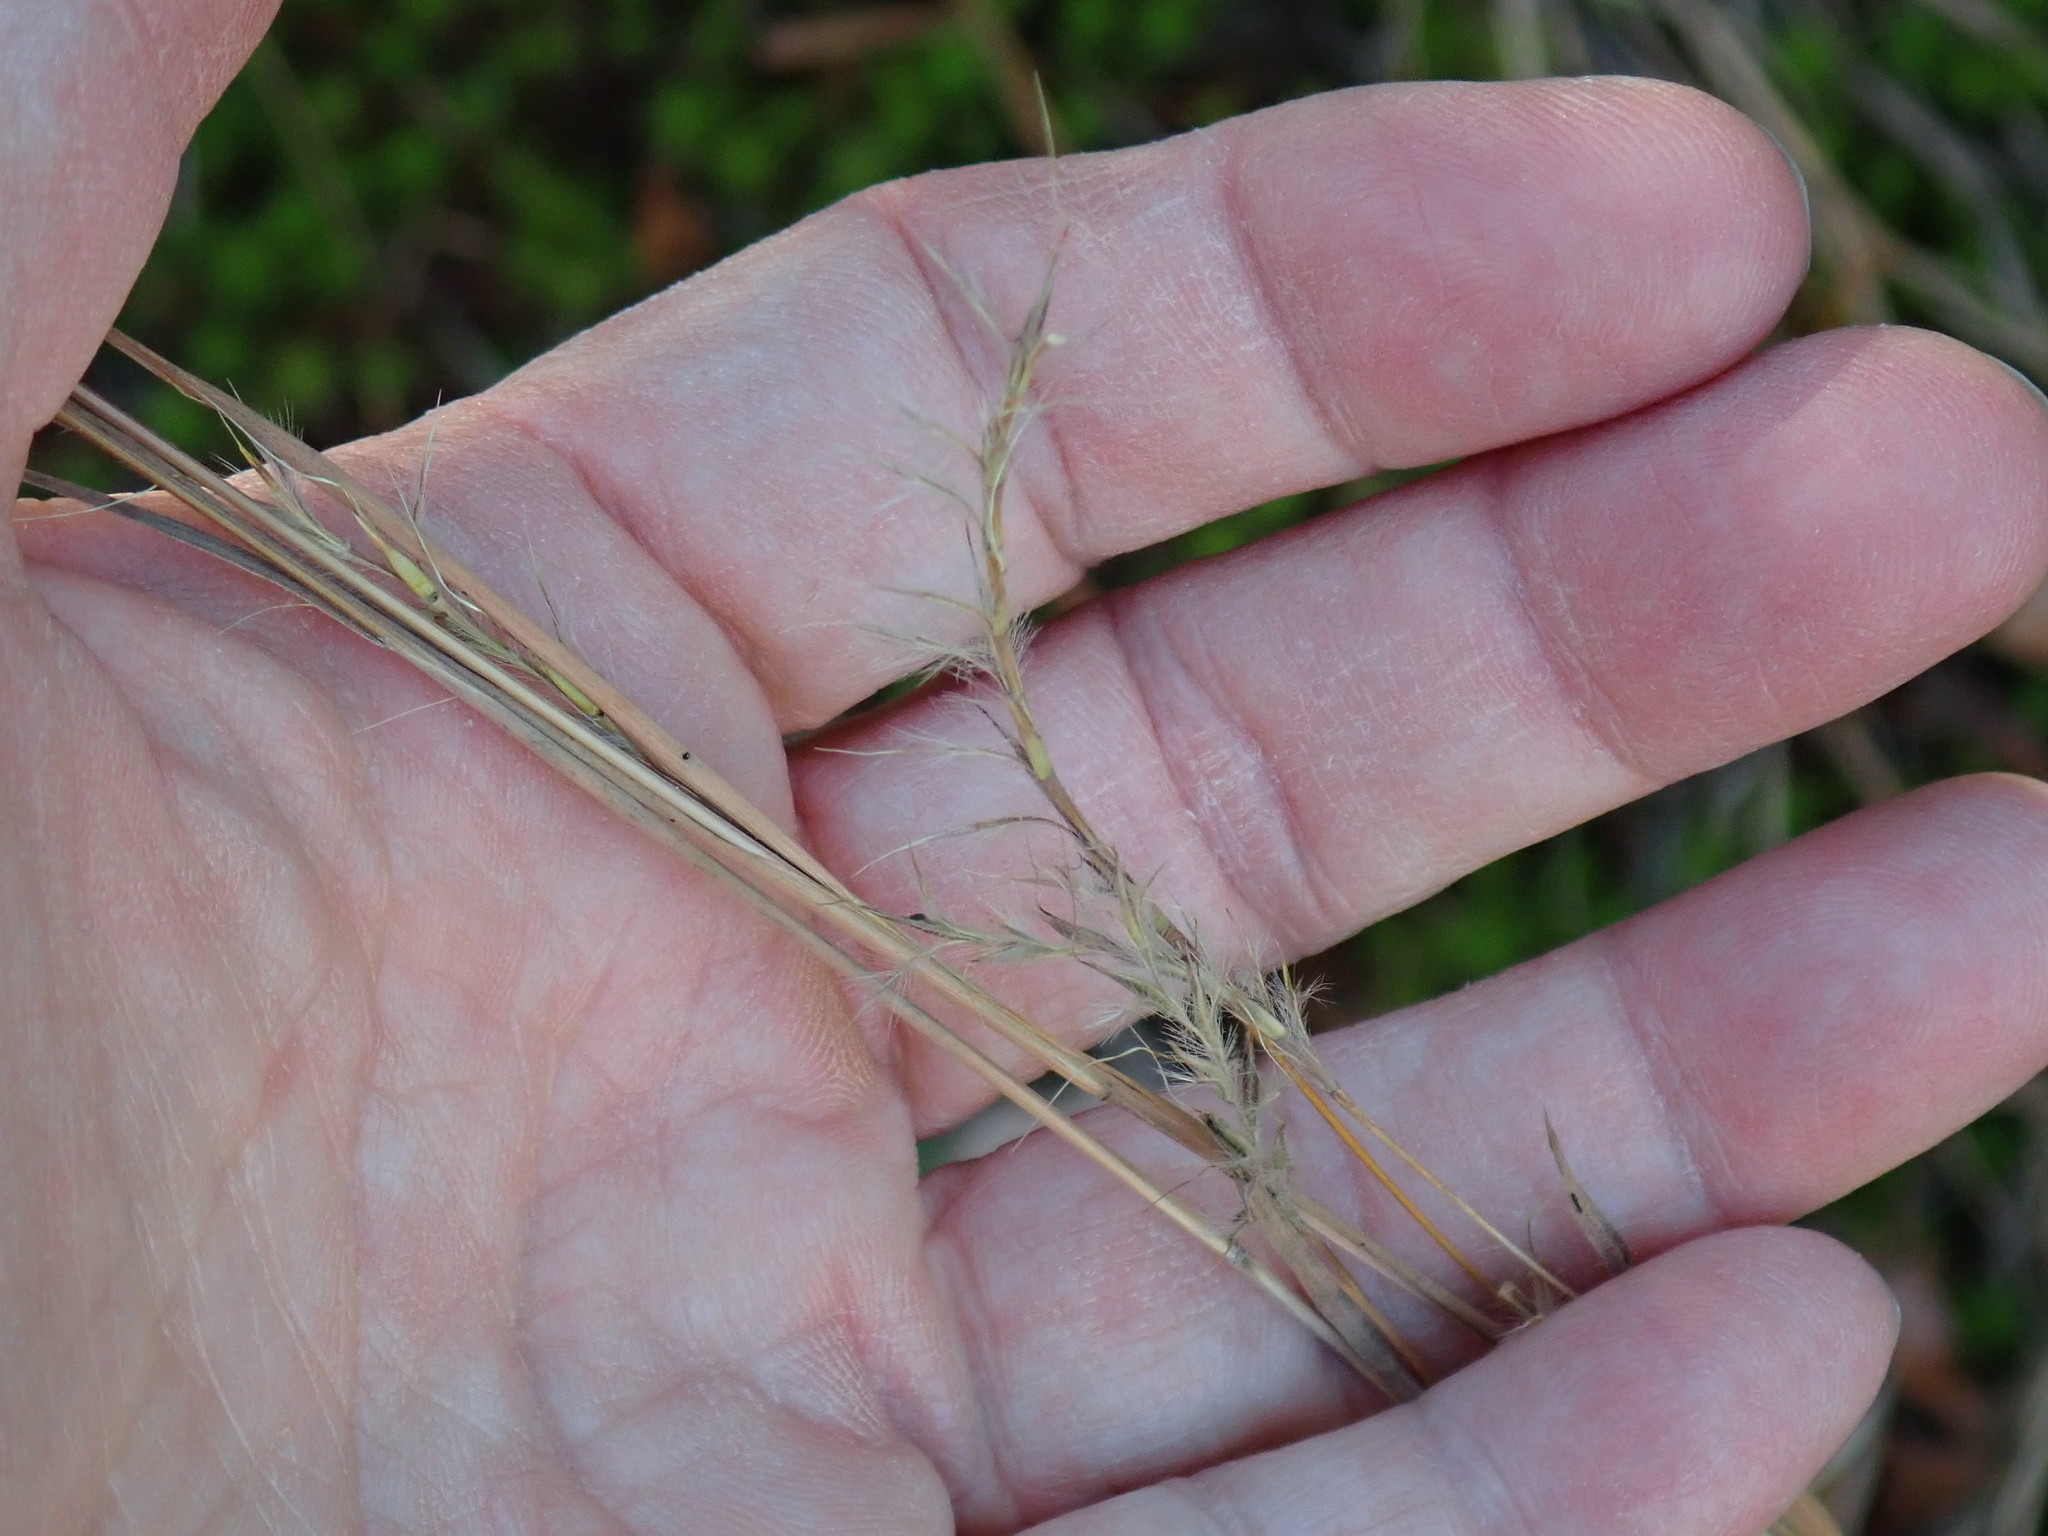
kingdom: Plantae
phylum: Tracheophyta
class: Liliopsida
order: Poales
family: Poaceae
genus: Schizachyrium
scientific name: Schizachyrium scoparium
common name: Little bluestem
